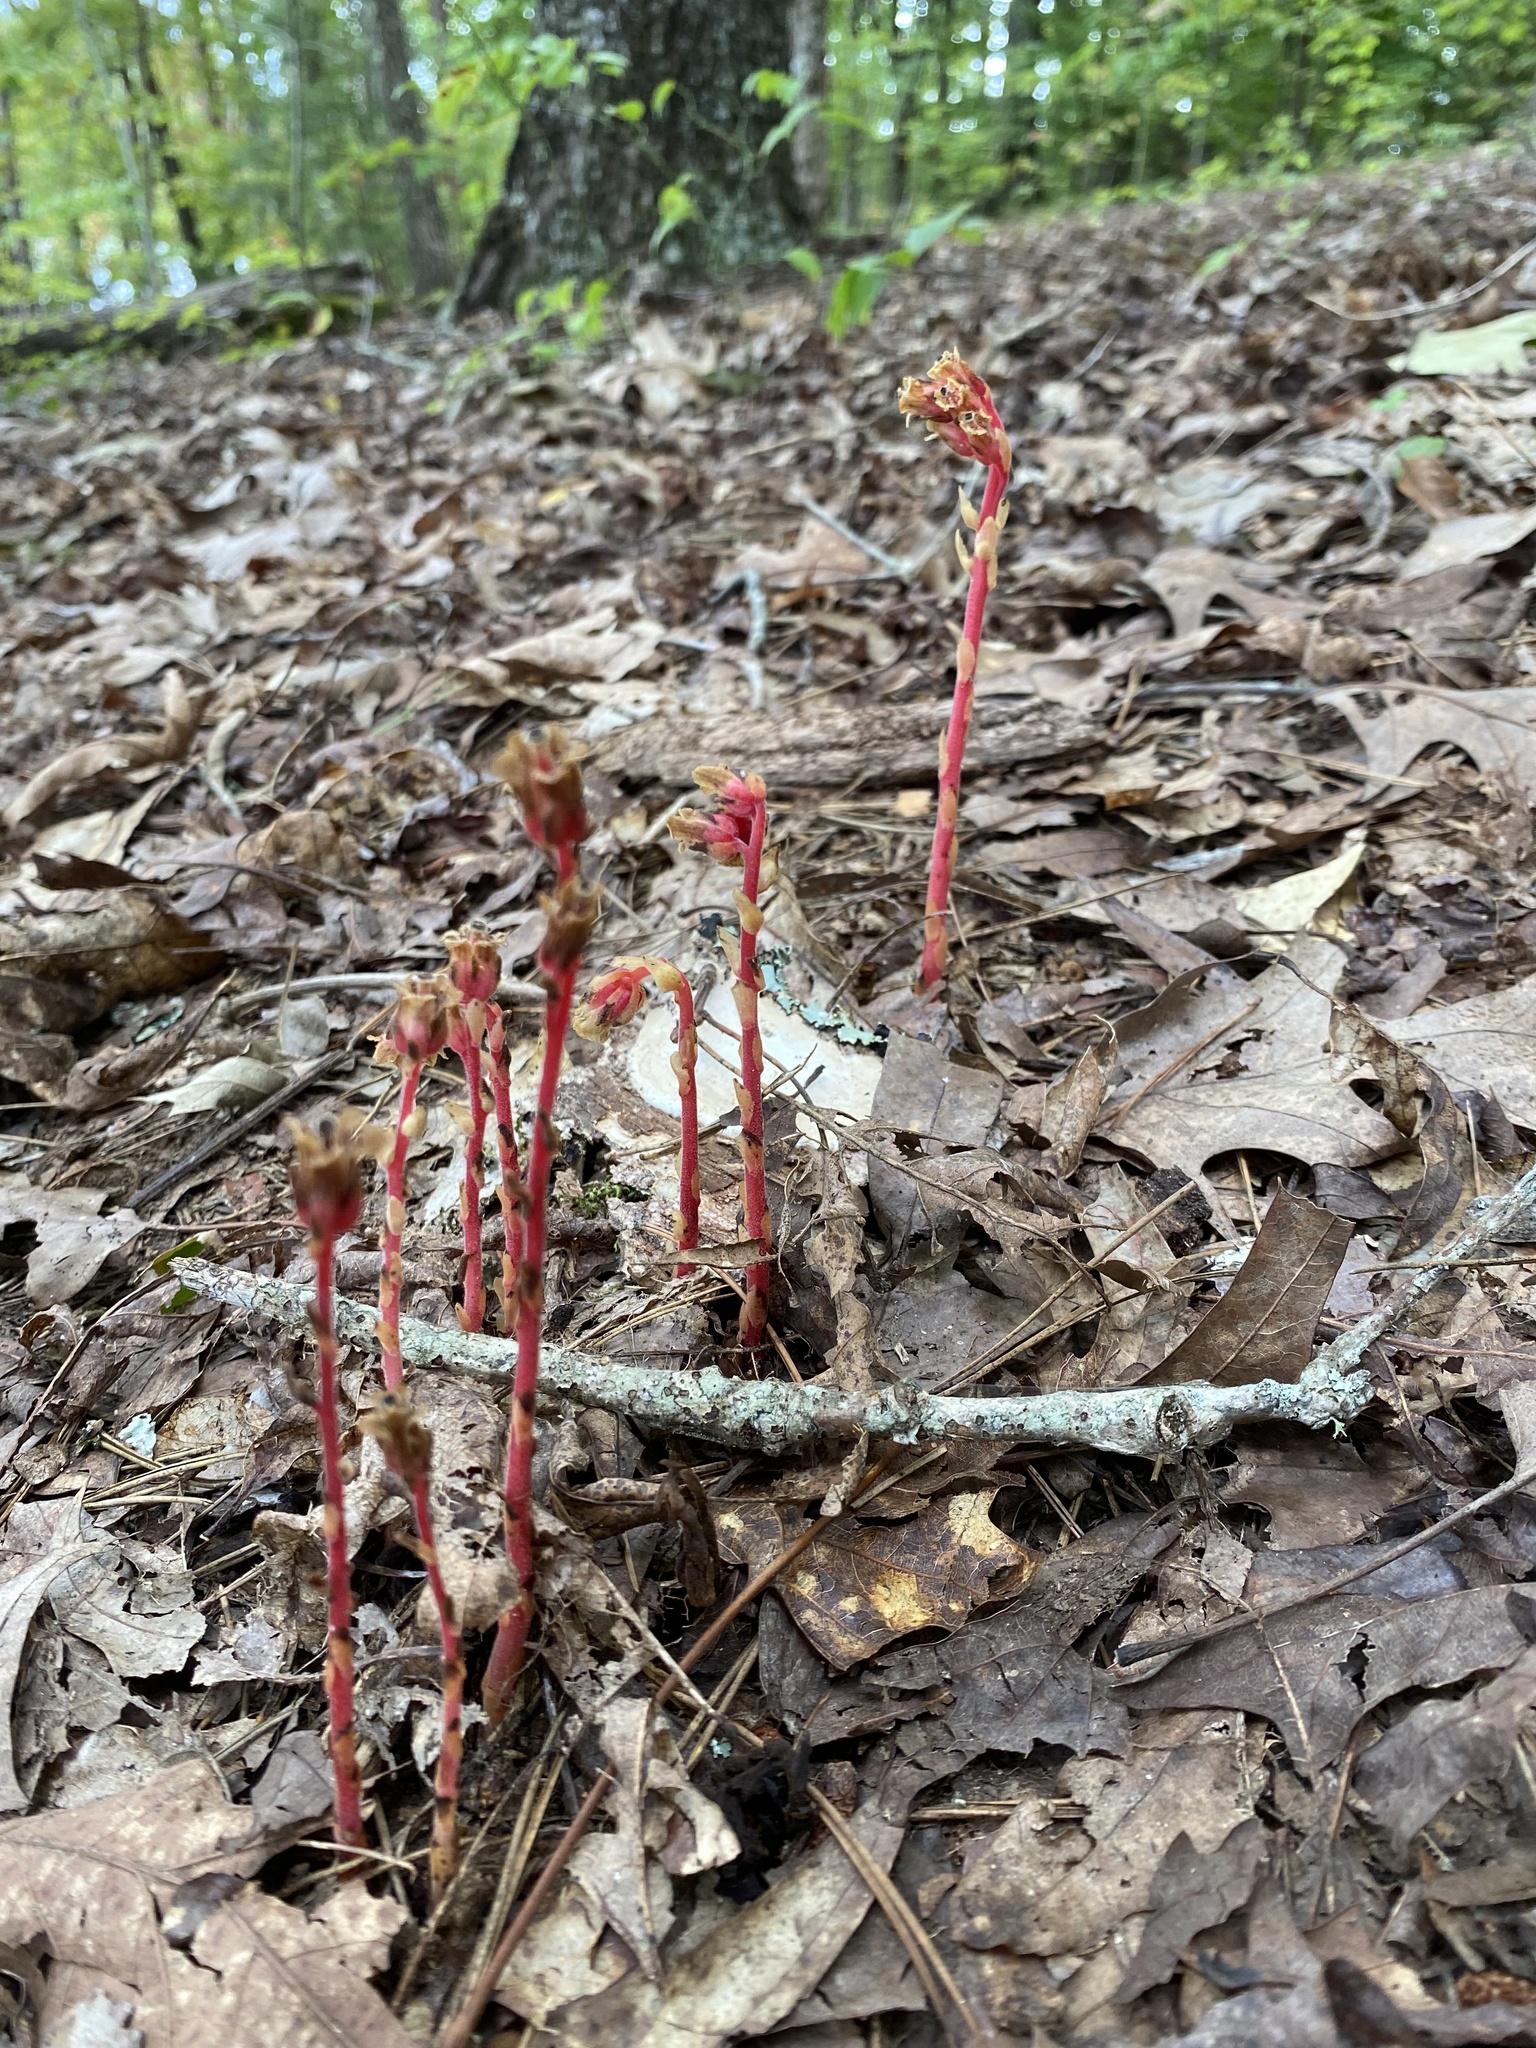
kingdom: Plantae
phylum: Tracheophyta
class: Magnoliopsida
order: Ericales
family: Ericaceae
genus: Hypopitys
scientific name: Hypopitys monotropa
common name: Yellow bird's-nest
